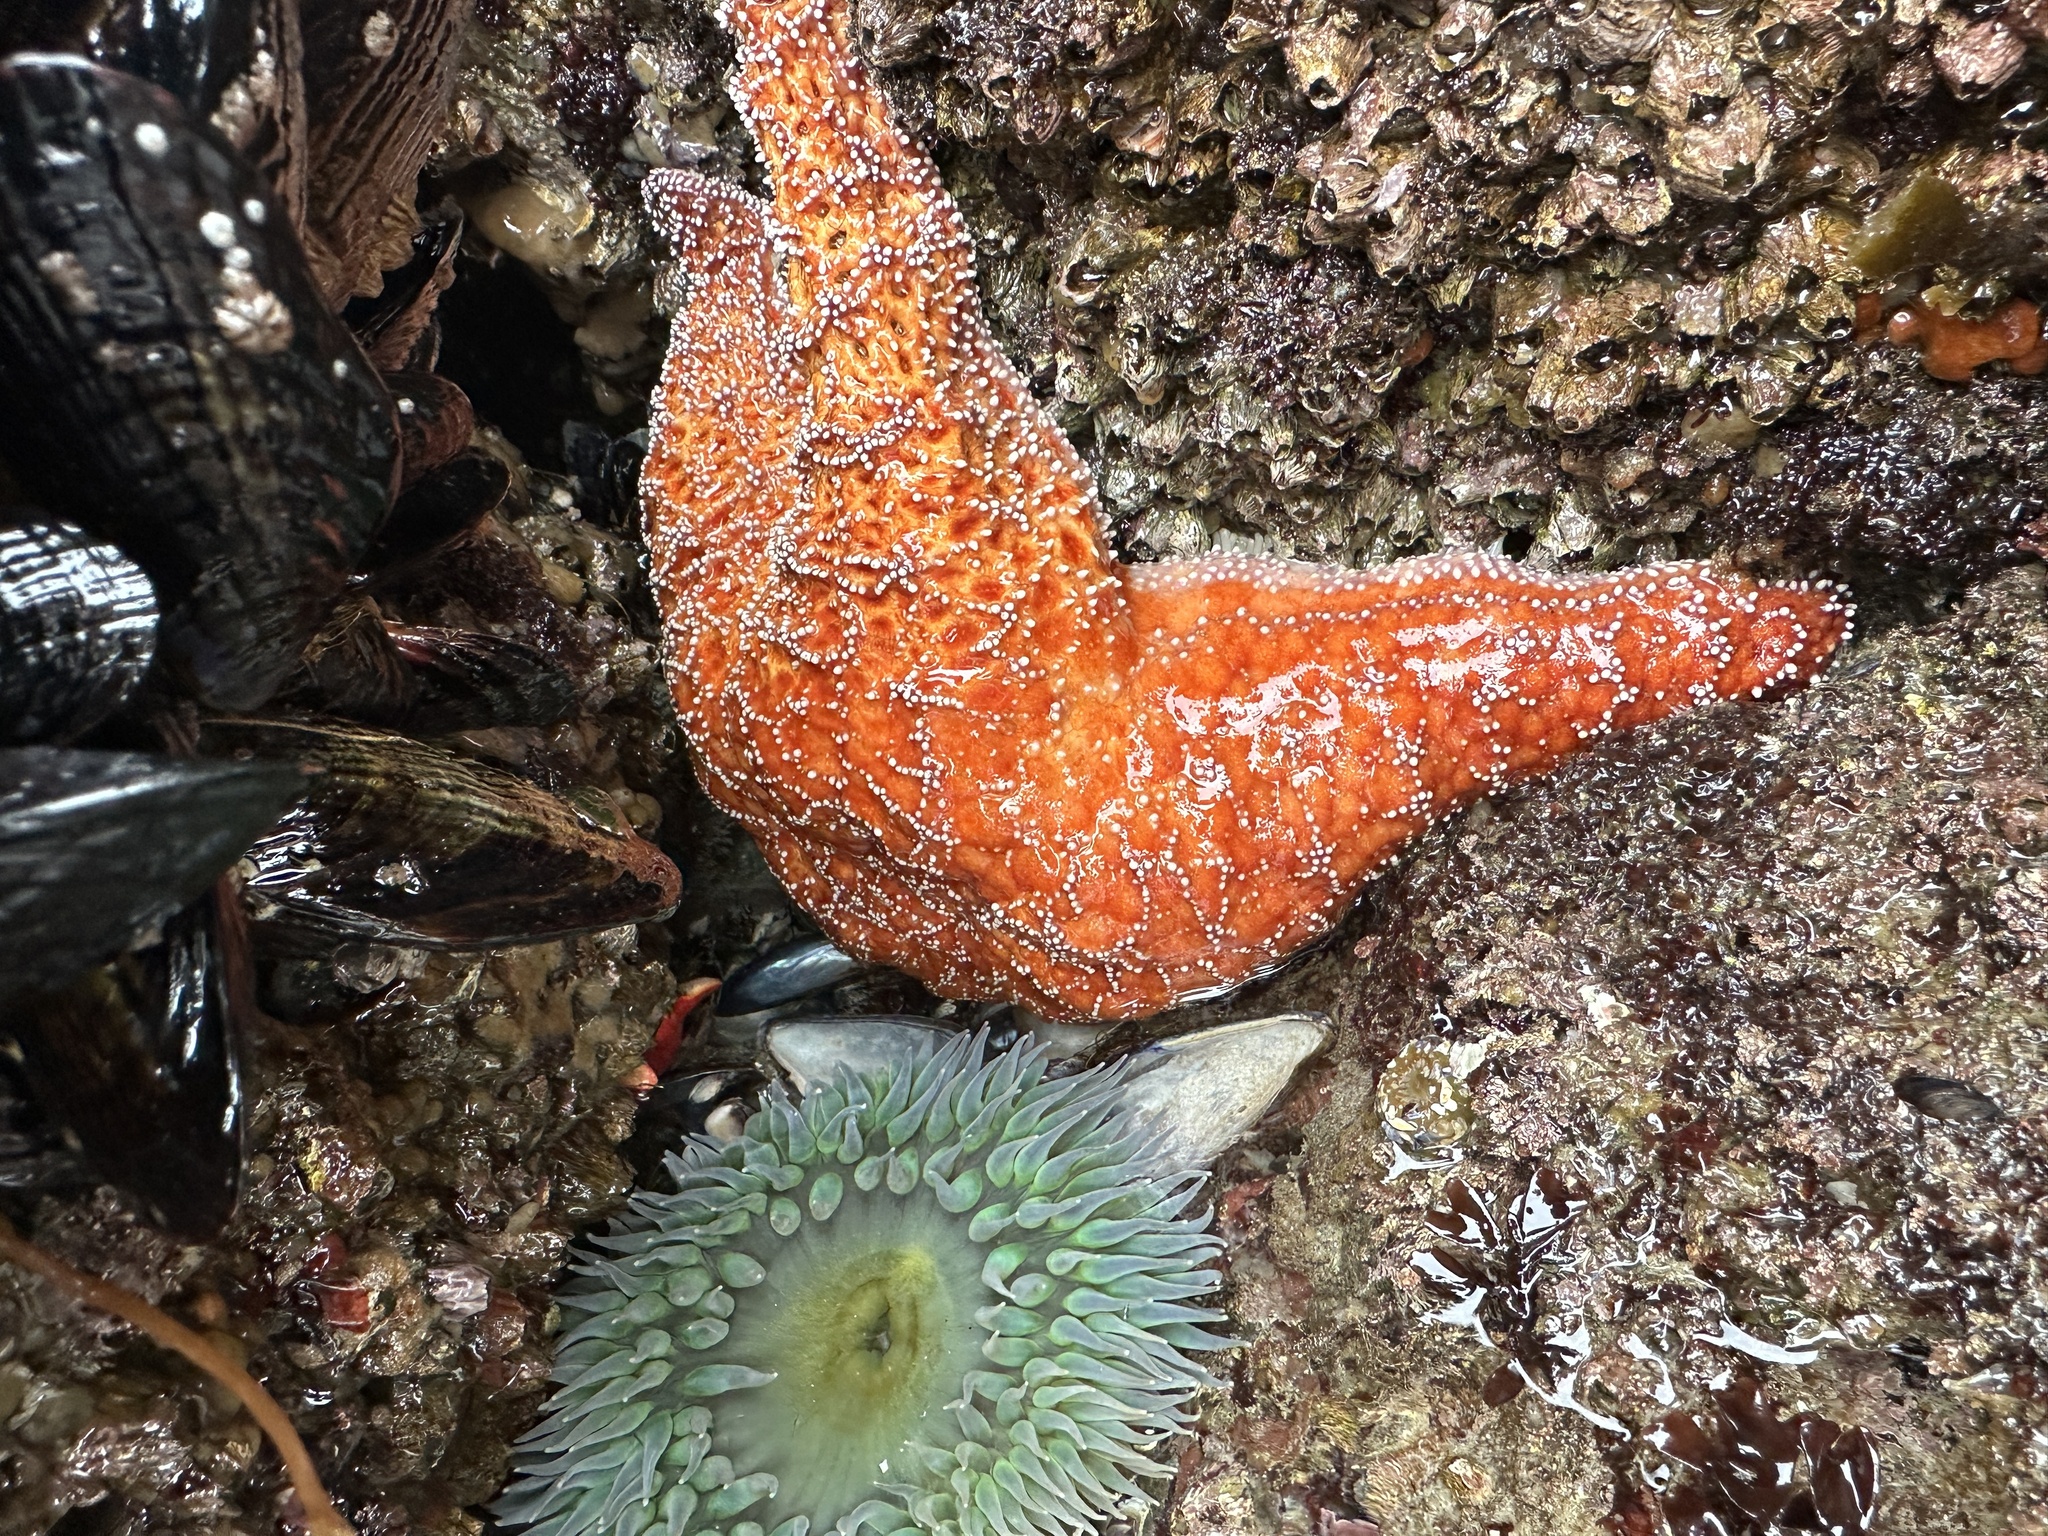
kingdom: Animalia
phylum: Echinodermata
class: Asteroidea
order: Forcipulatida
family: Asteriidae
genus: Pisaster
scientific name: Pisaster ochraceus
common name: Ochre stars
